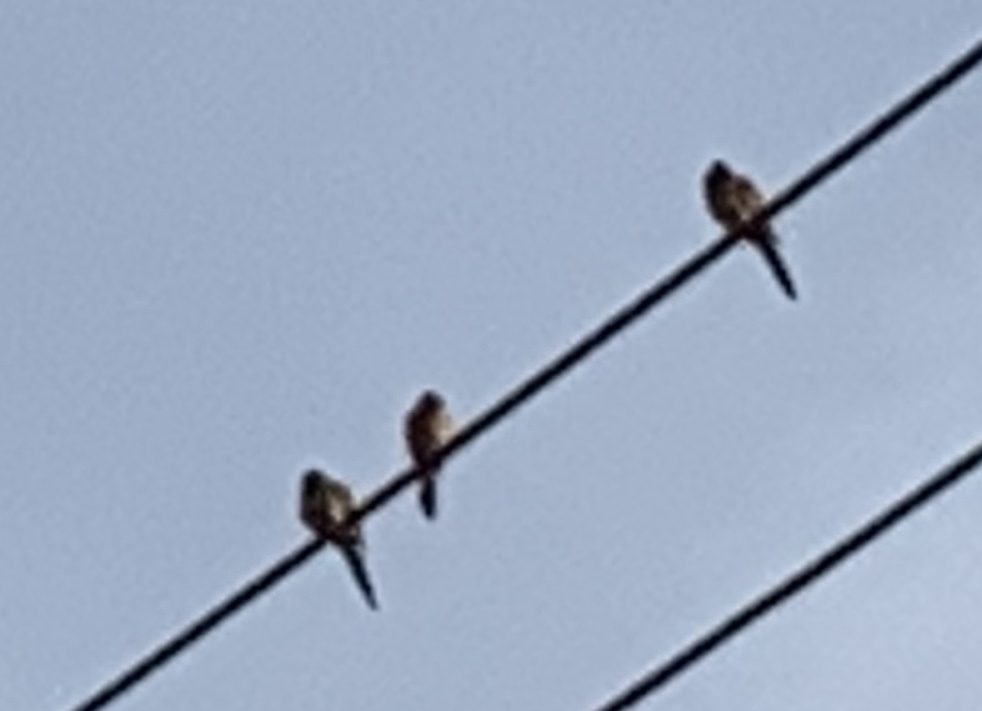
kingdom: Animalia
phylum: Chordata
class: Aves
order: Columbiformes
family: Columbidae
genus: Zenaida
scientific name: Zenaida macroura
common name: Mourning dove
